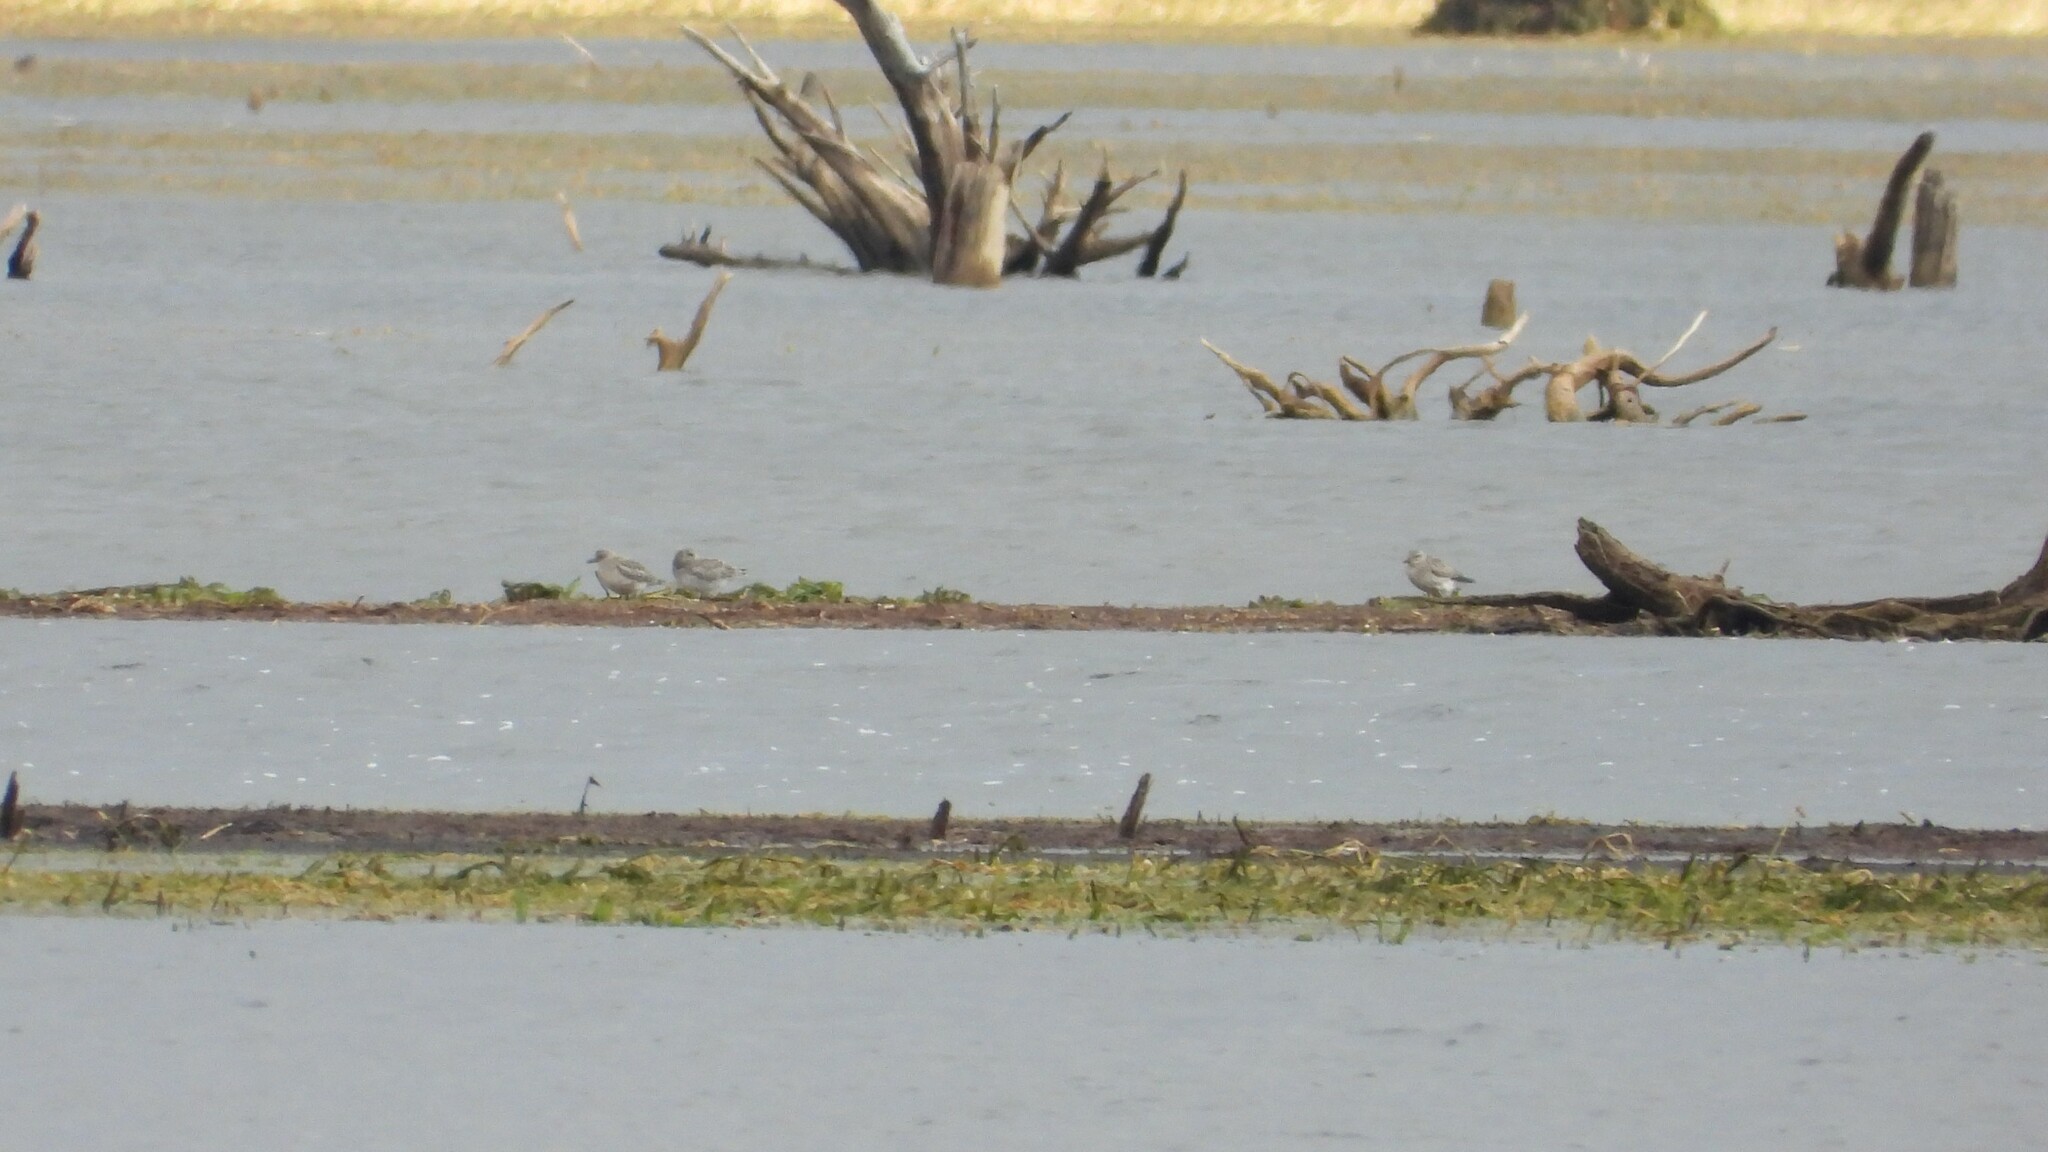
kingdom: Animalia
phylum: Chordata
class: Aves
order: Charadriiformes
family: Charadriidae
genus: Pluvialis
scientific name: Pluvialis squatarola
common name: Grey plover
